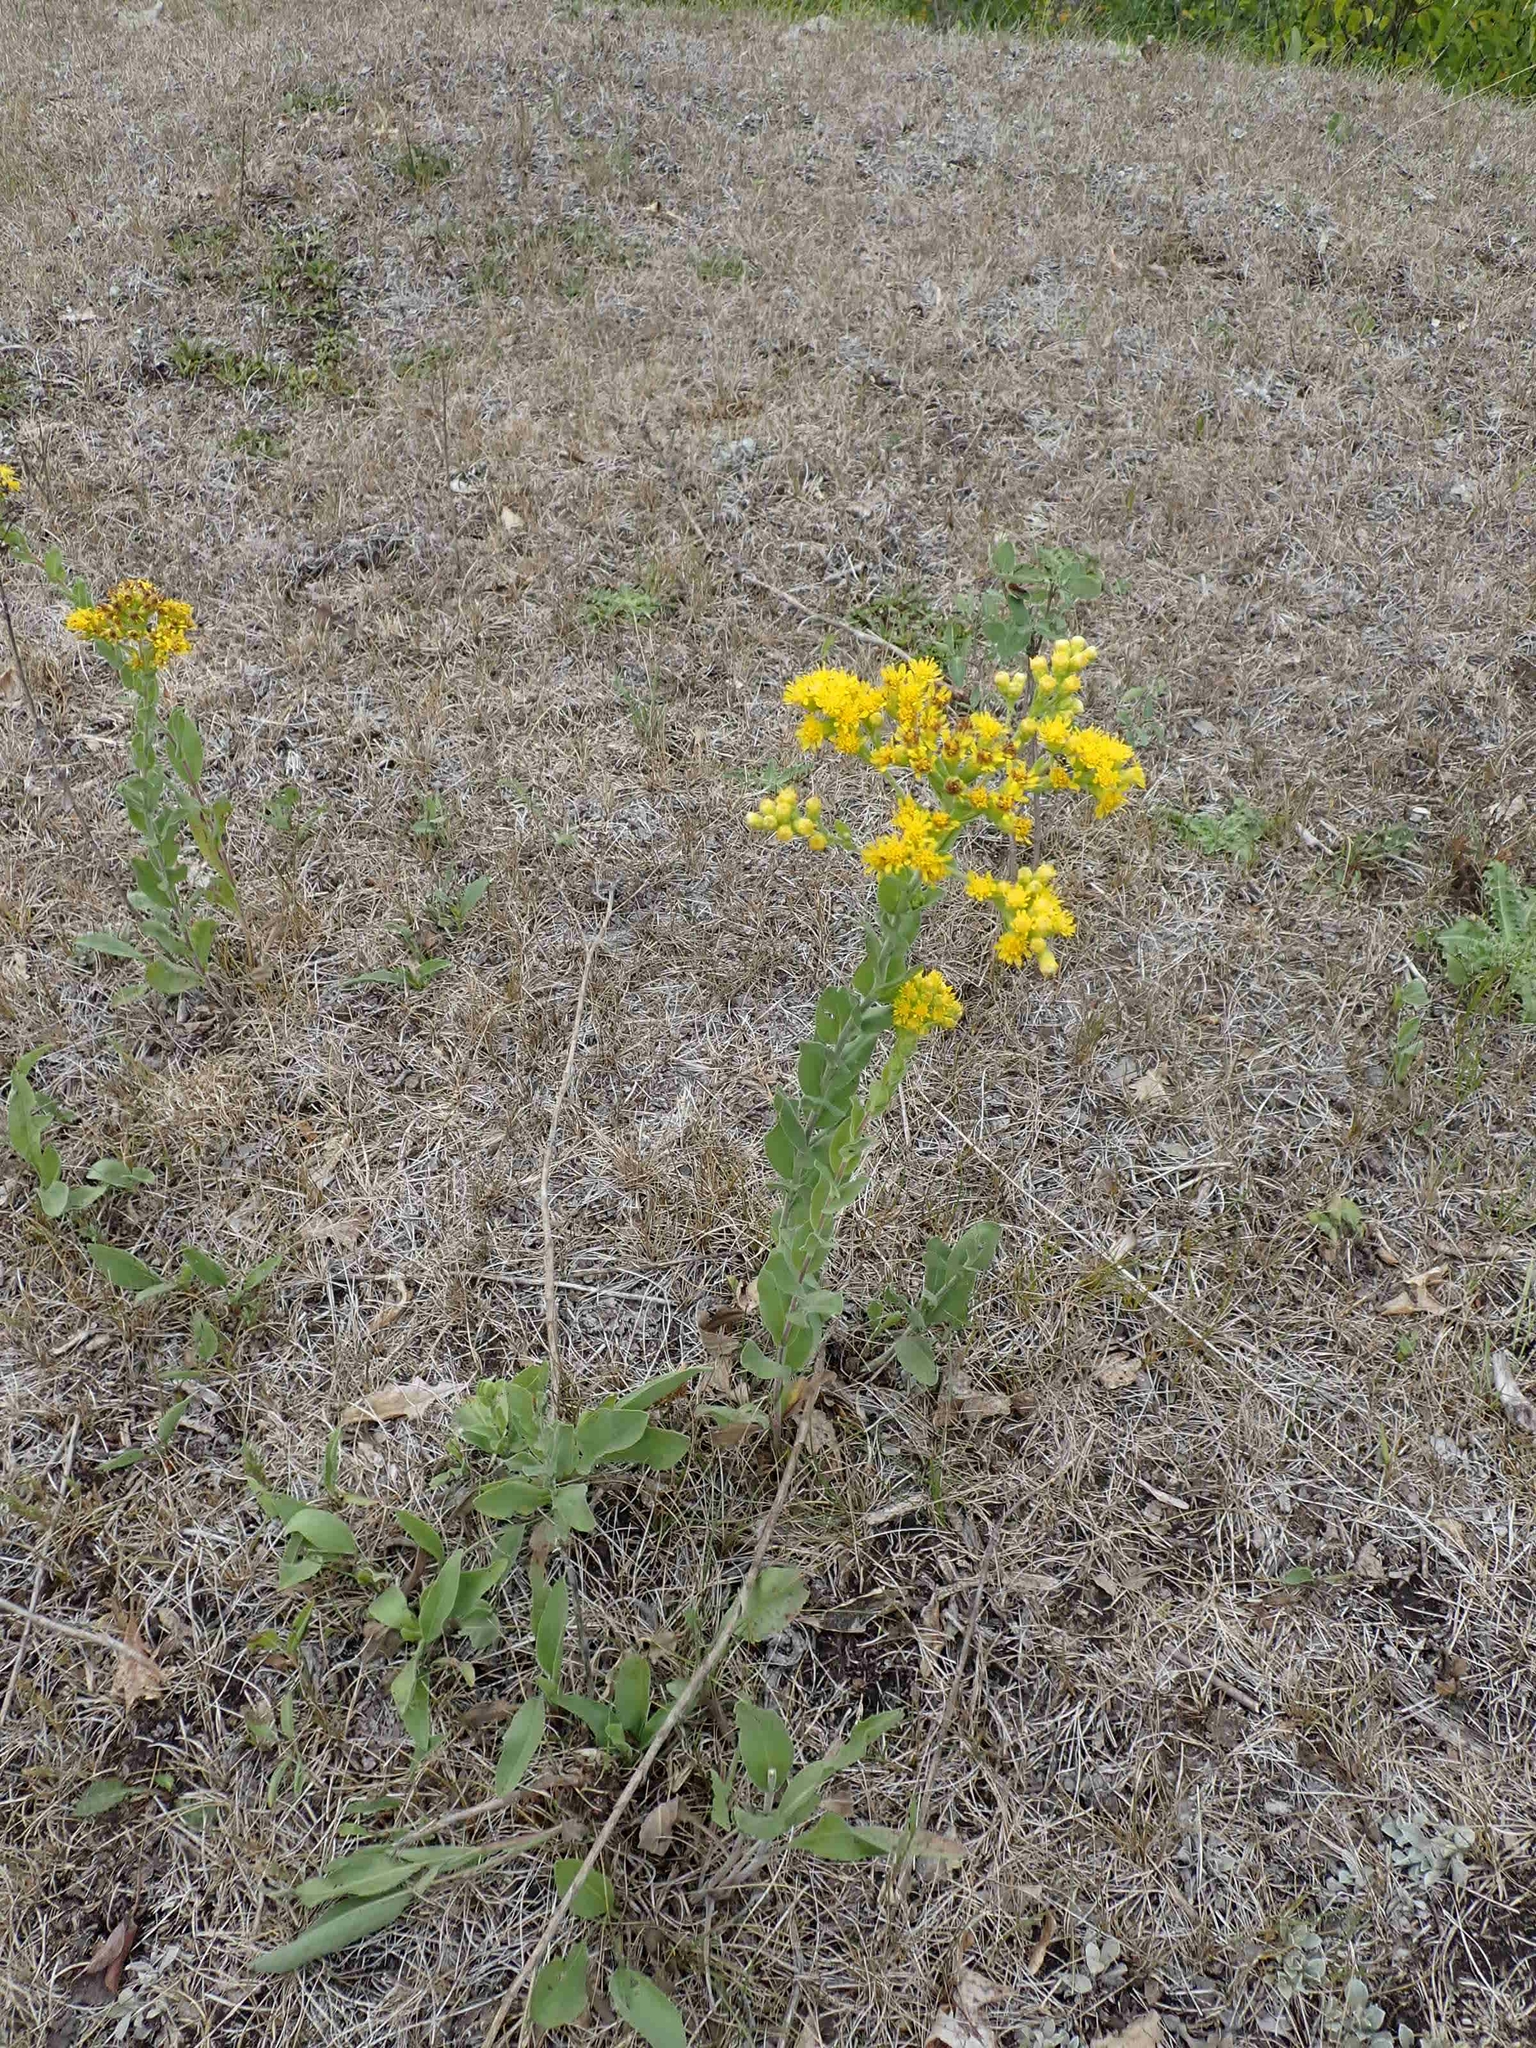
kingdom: Plantae
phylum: Tracheophyta
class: Magnoliopsida
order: Asterales
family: Asteraceae
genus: Solidago
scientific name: Solidago rigida
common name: Rigid goldenrod
